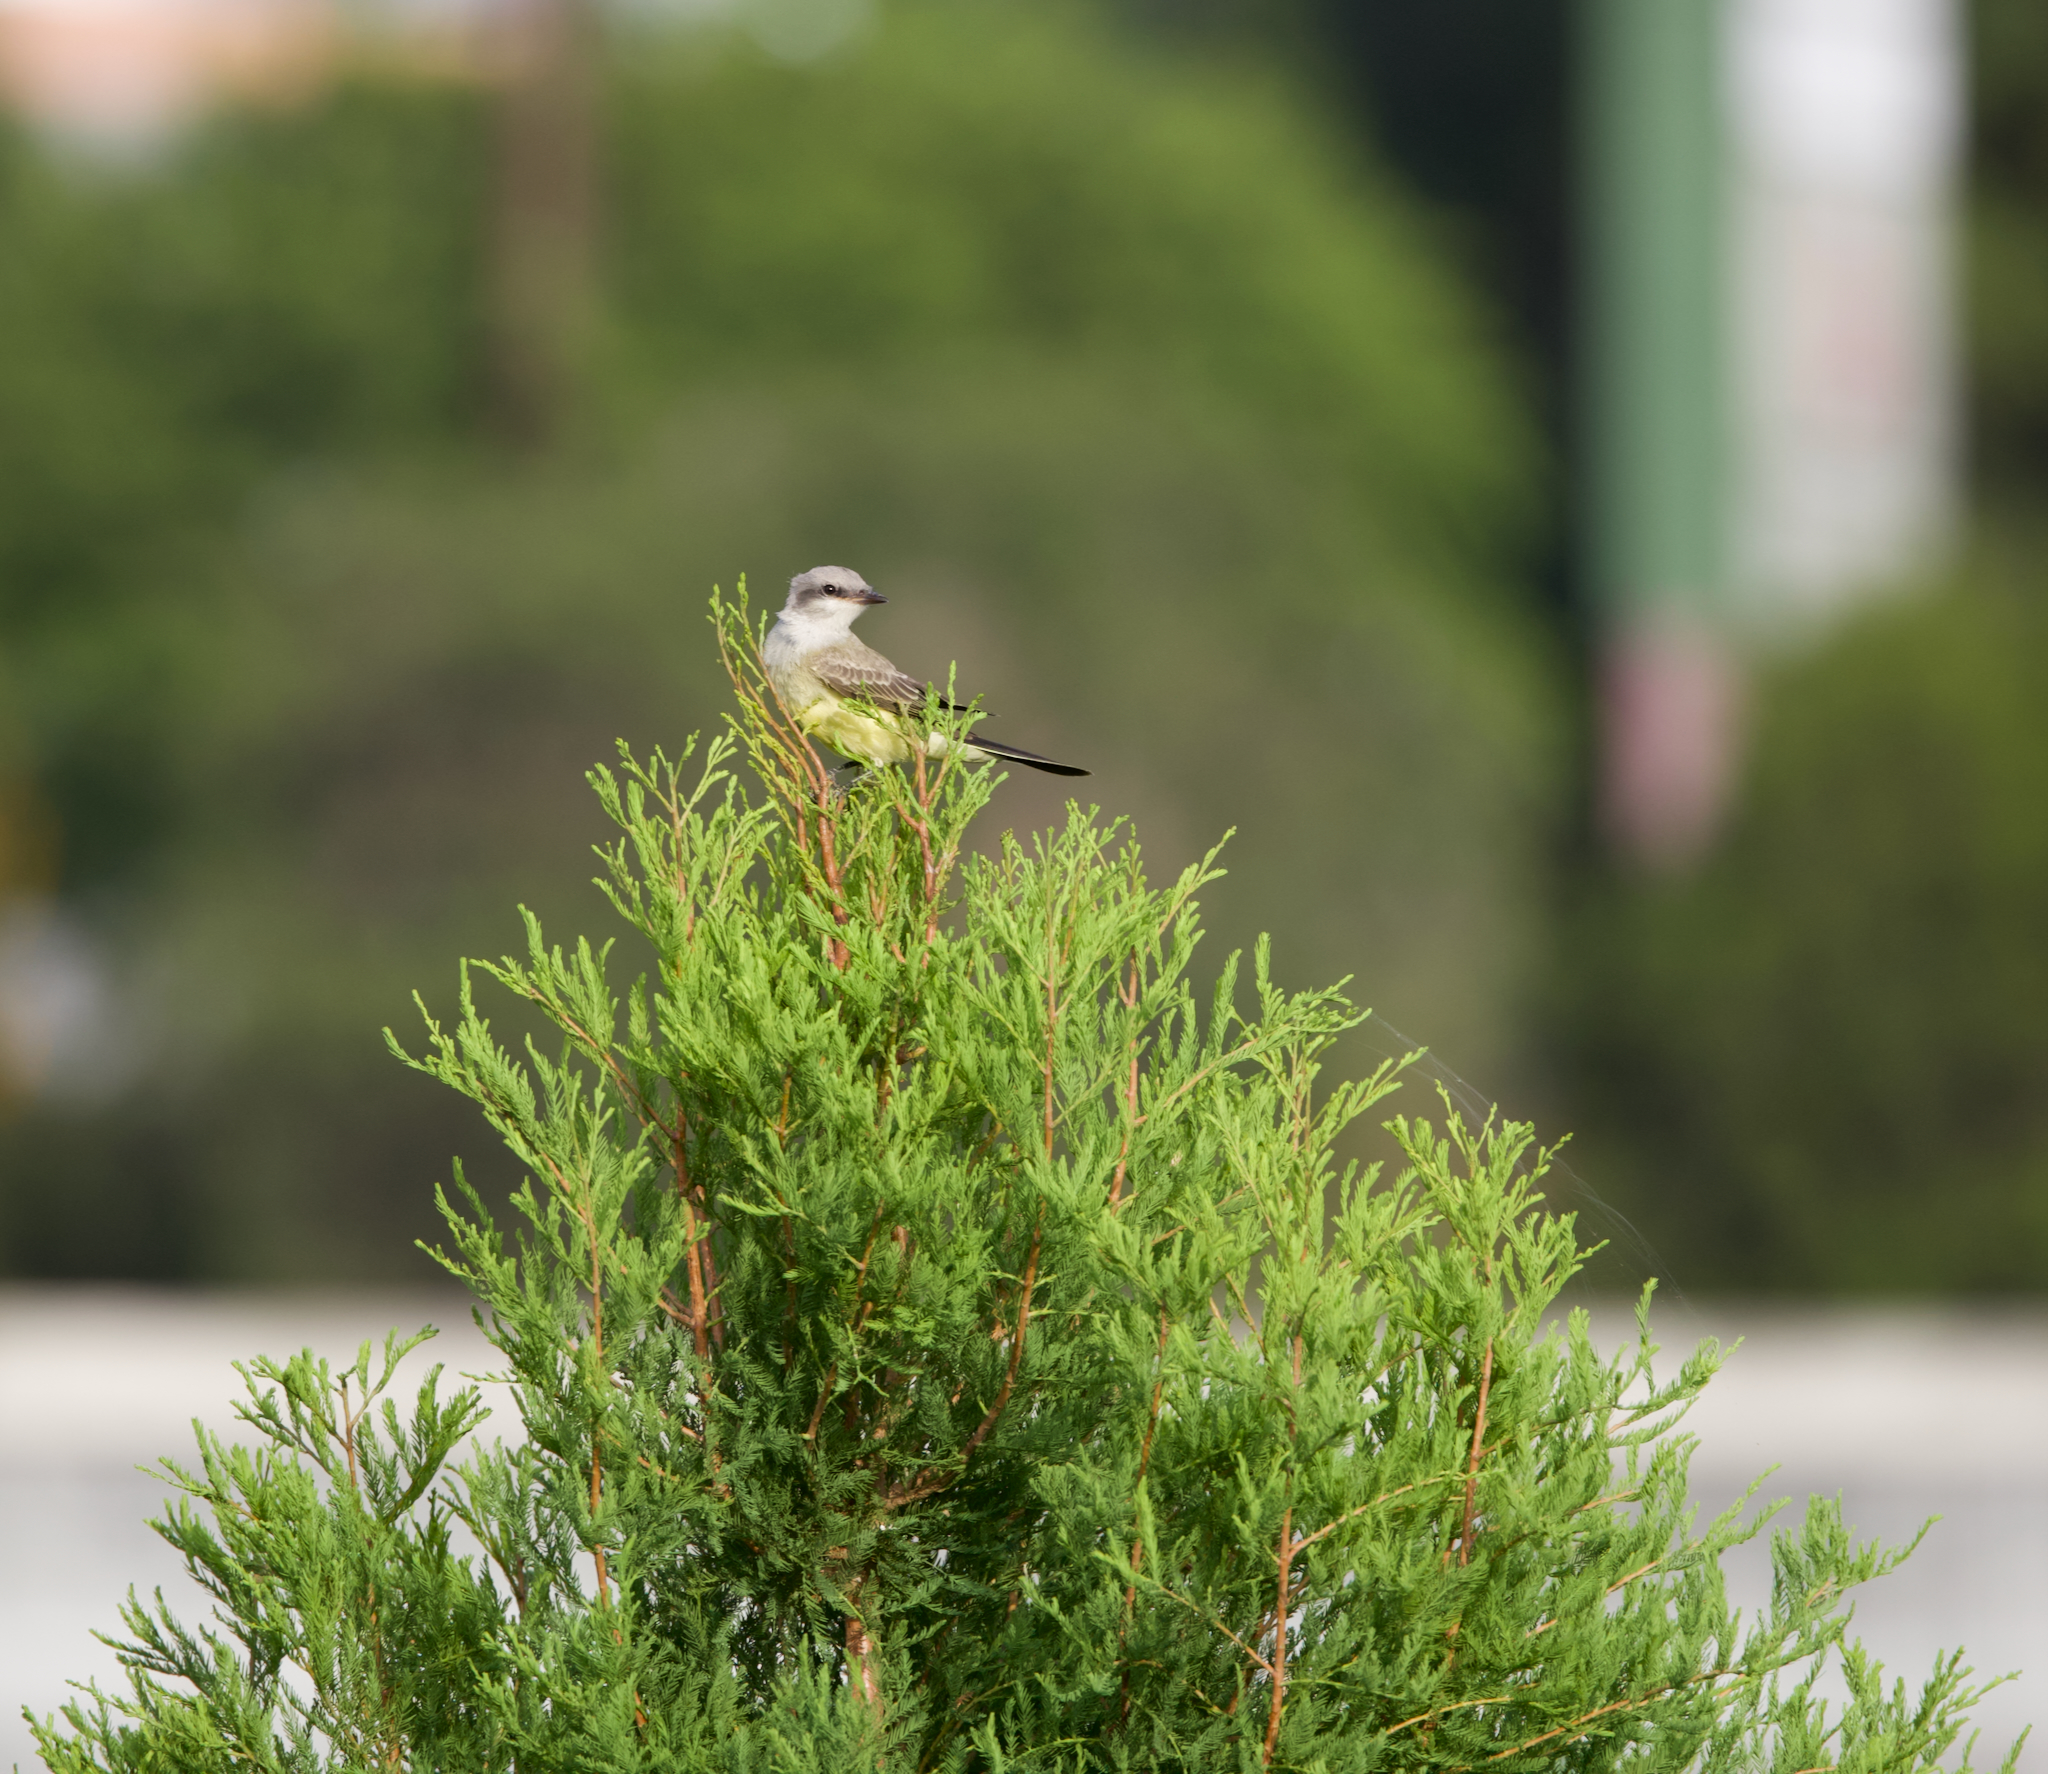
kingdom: Animalia
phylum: Chordata
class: Aves
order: Passeriformes
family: Tyrannidae
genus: Tyrannus
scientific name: Tyrannus verticalis
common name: Western kingbird
